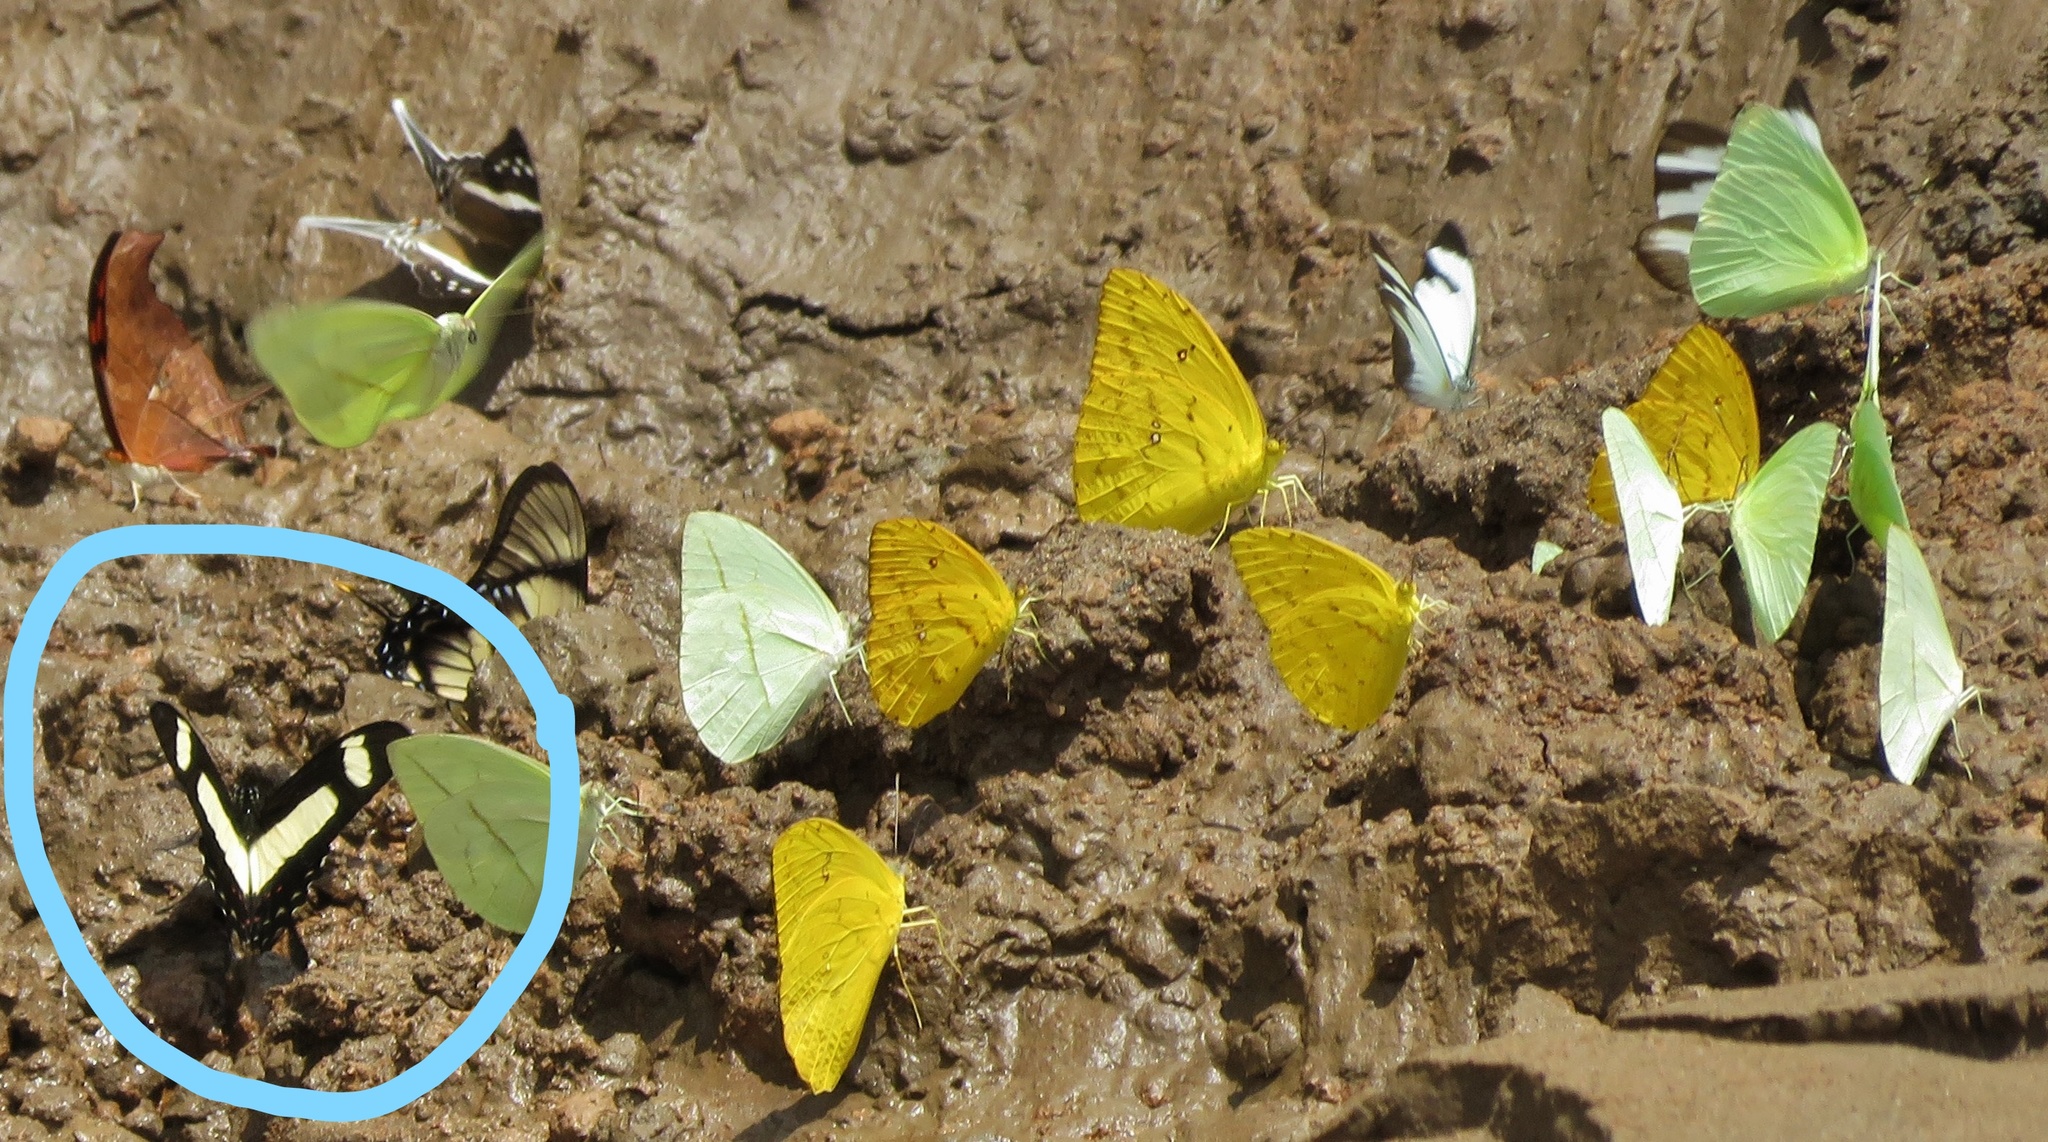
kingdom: Animalia
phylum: Arthropoda
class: Insecta
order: Lepidoptera
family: Papilionidae
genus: Papilio
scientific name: Papilio torquatus
